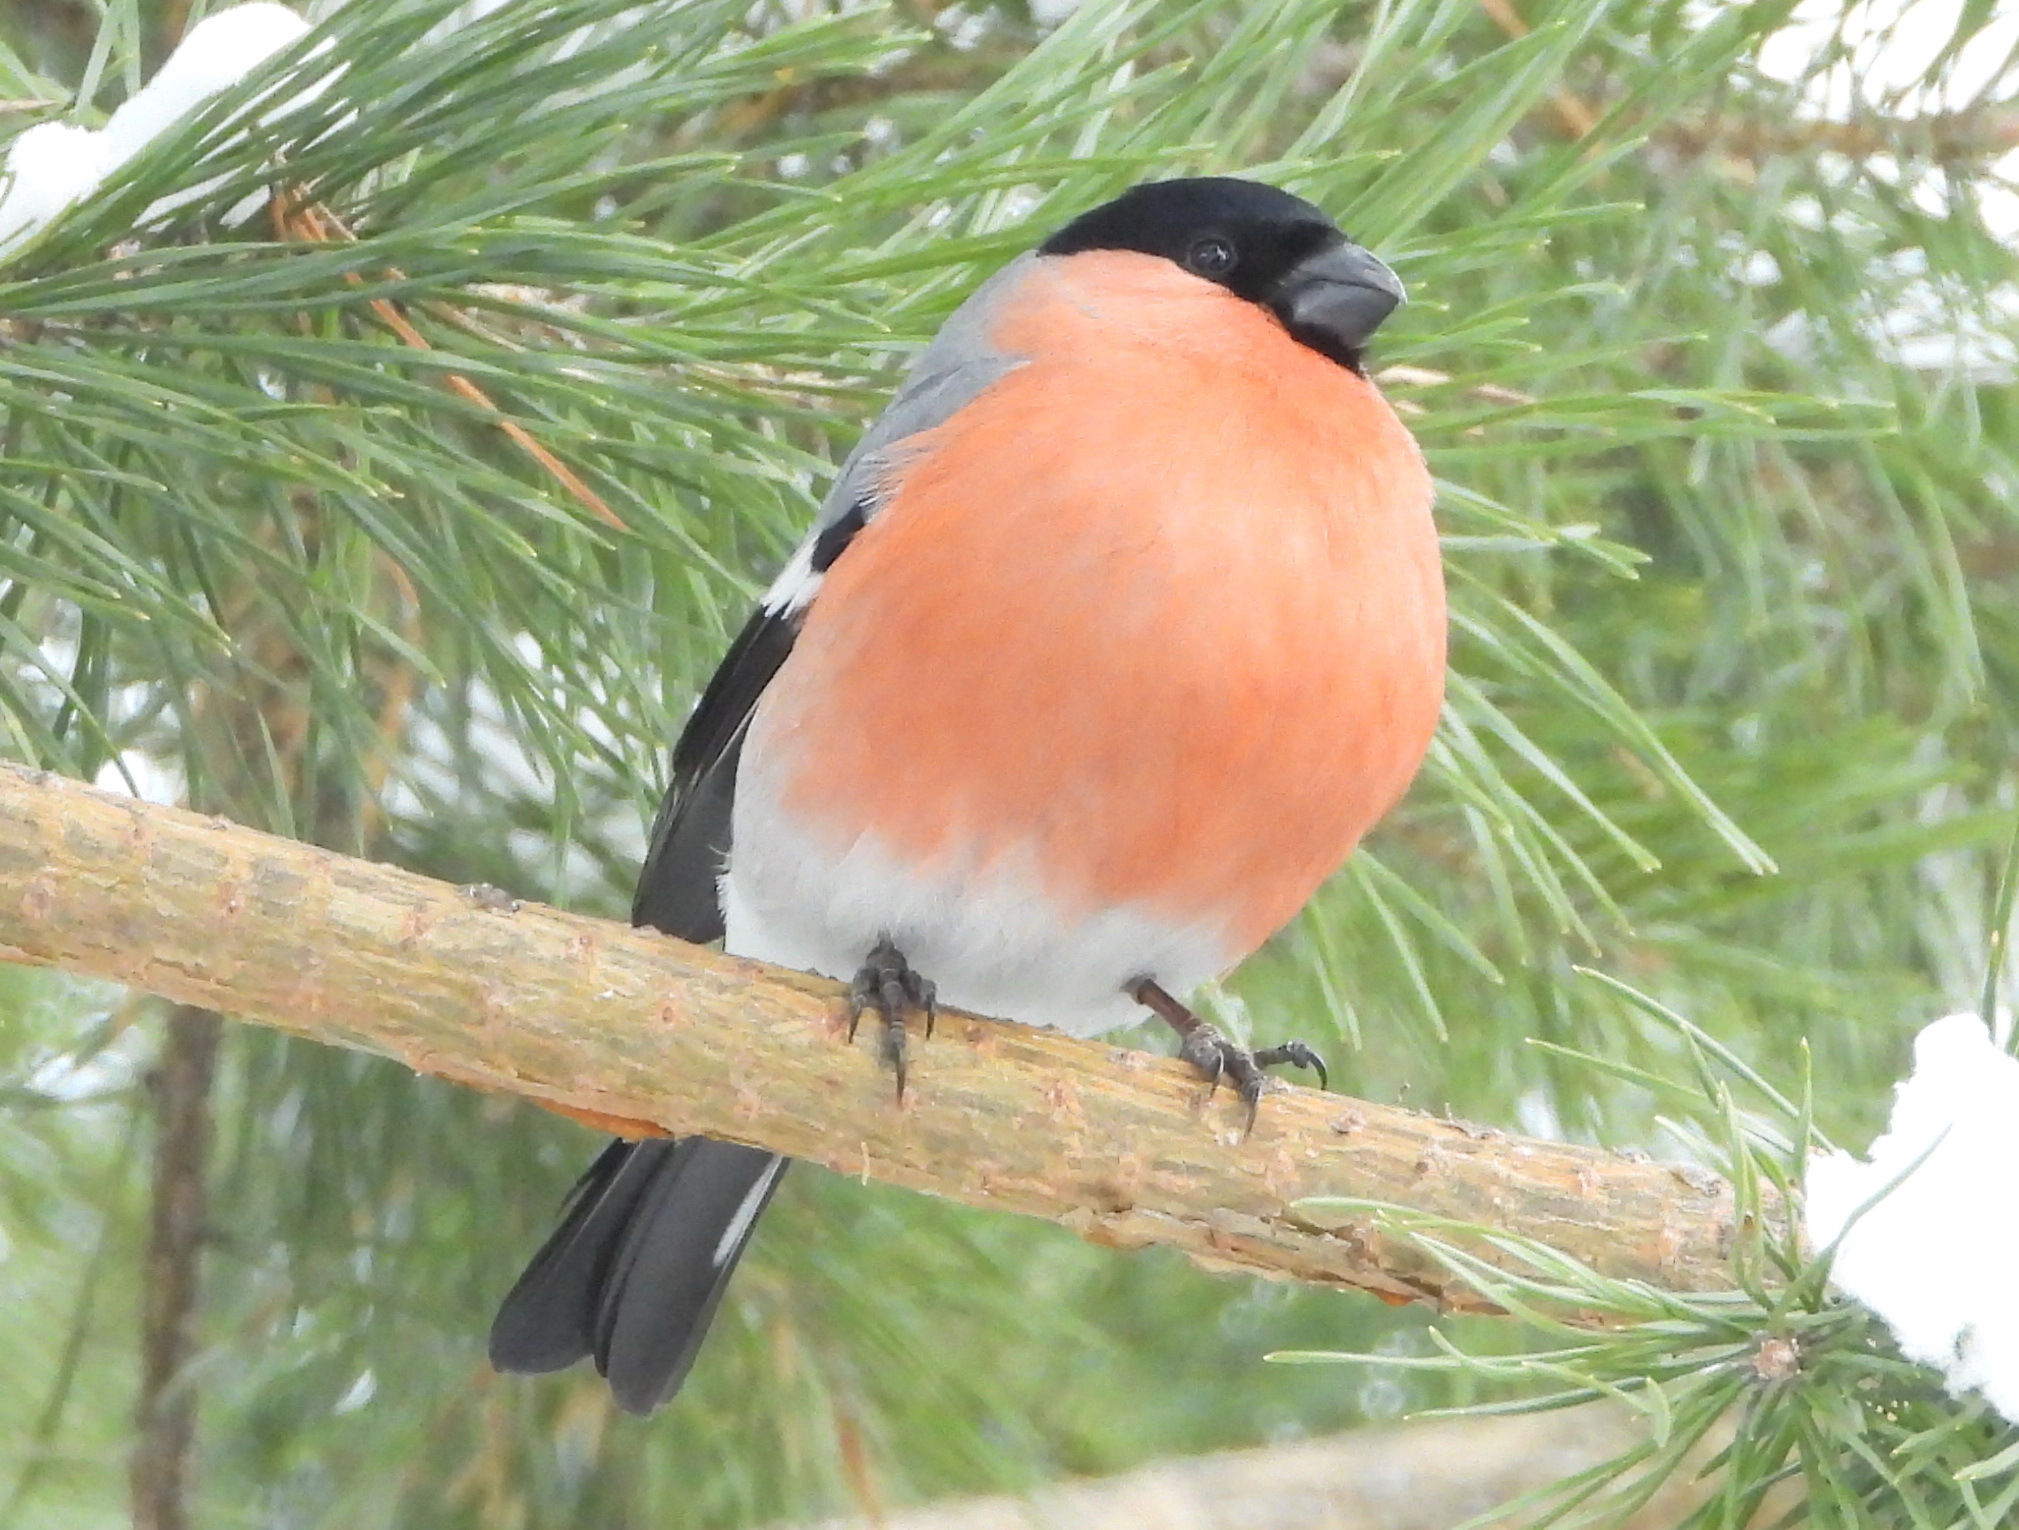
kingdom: Animalia
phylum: Chordata
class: Aves
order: Passeriformes
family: Fringillidae
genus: Pyrrhula
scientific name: Pyrrhula pyrrhula
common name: Eurasian bullfinch
